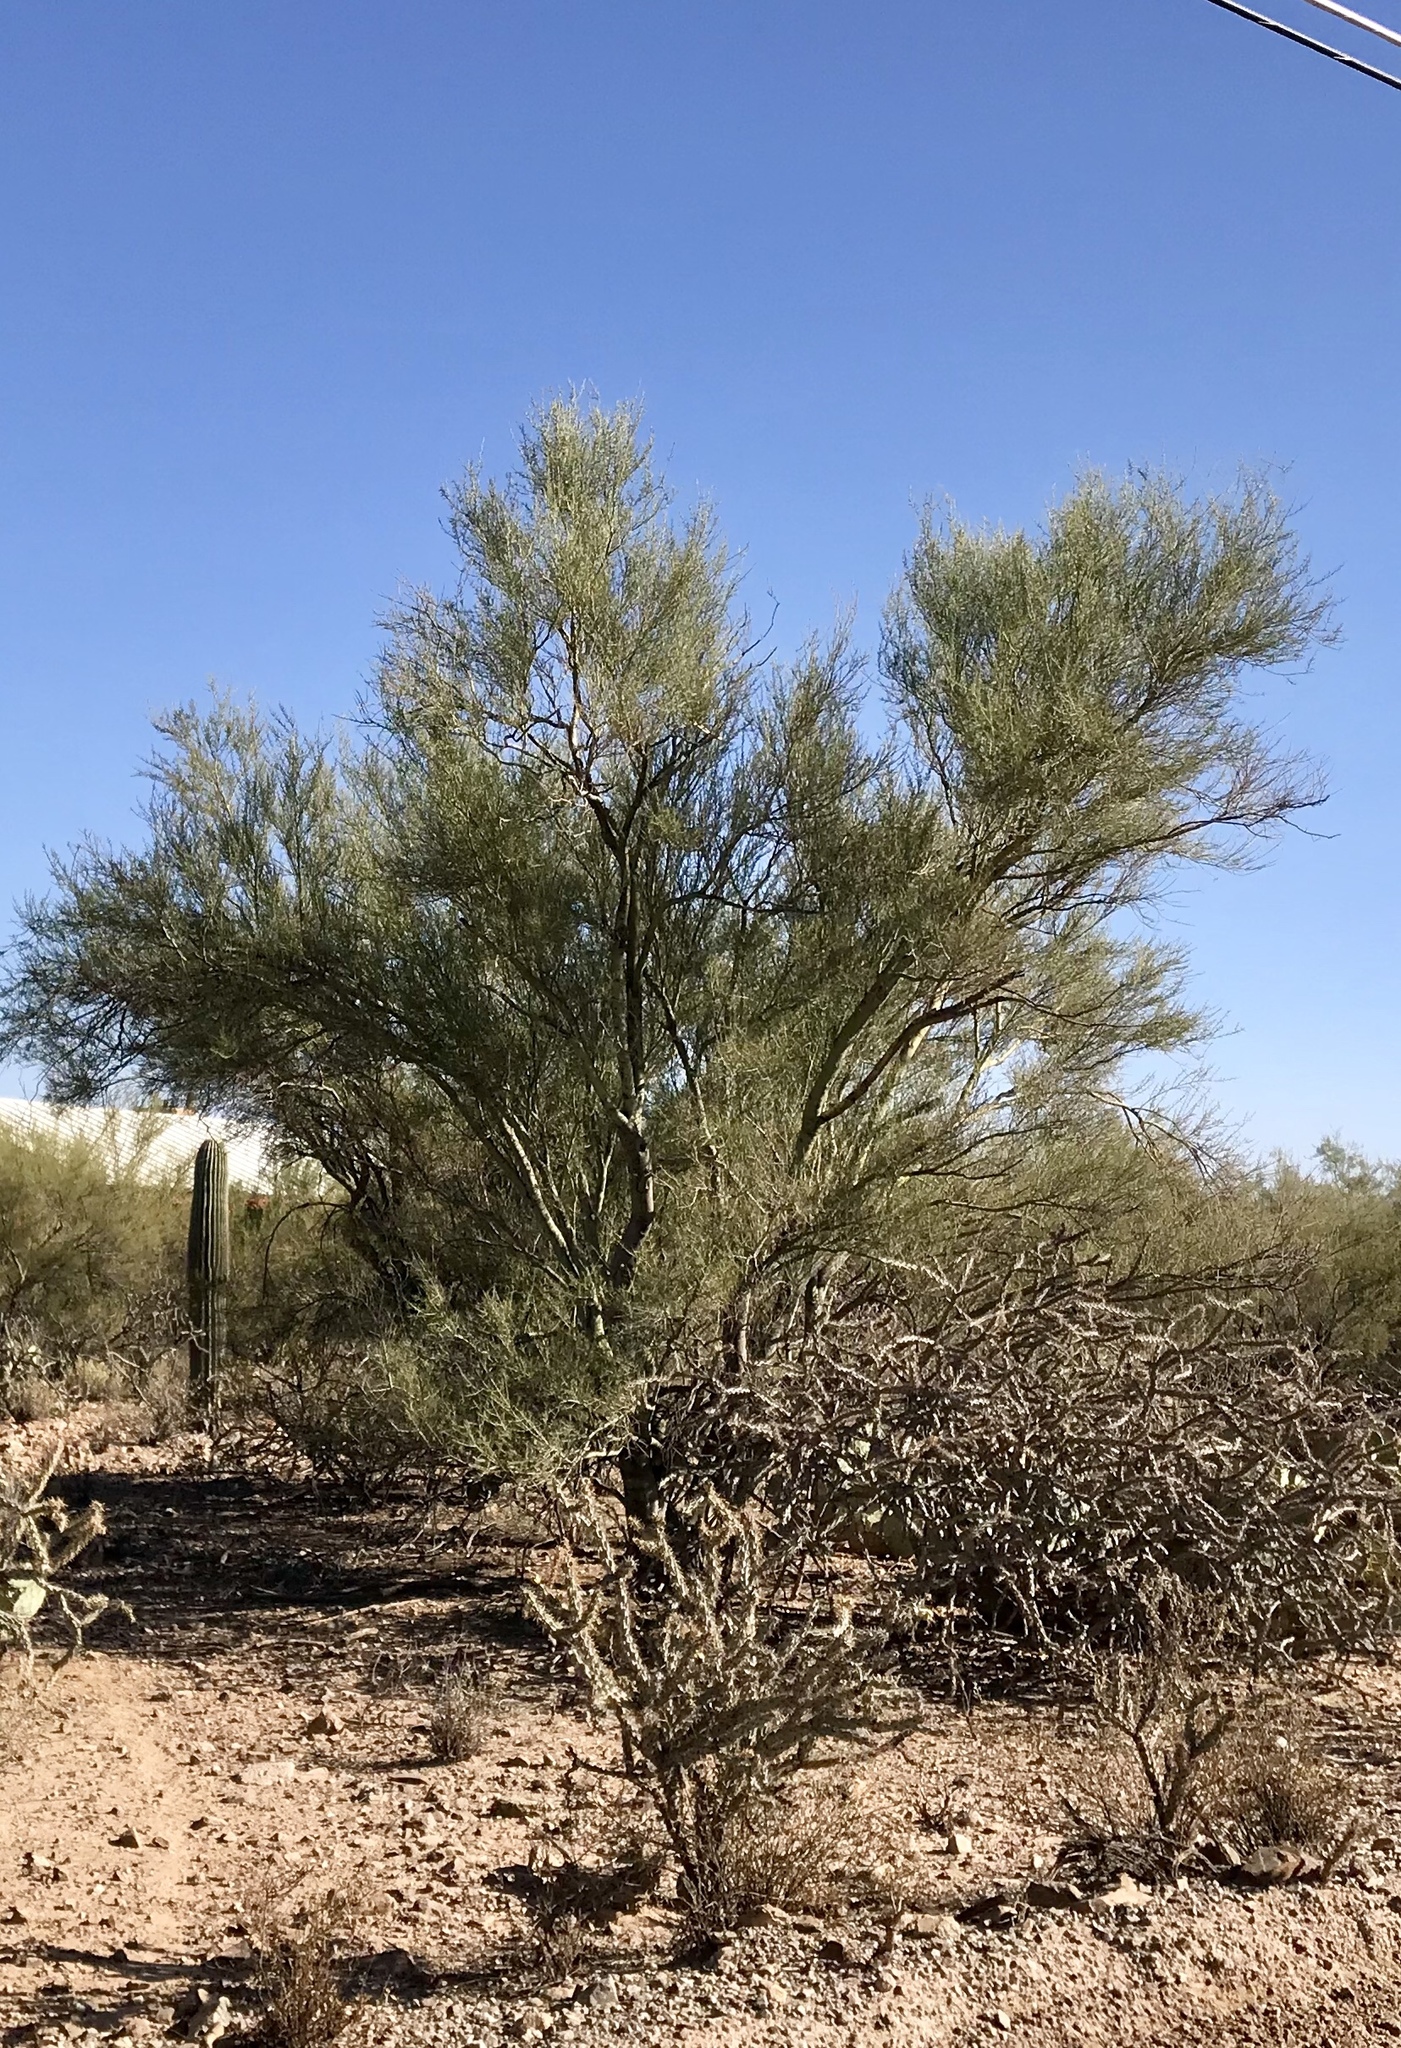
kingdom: Plantae
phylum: Tracheophyta
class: Magnoliopsida
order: Fabales
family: Fabaceae
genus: Parkinsonia
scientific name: Parkinsonia florida
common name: Blue paloverde
